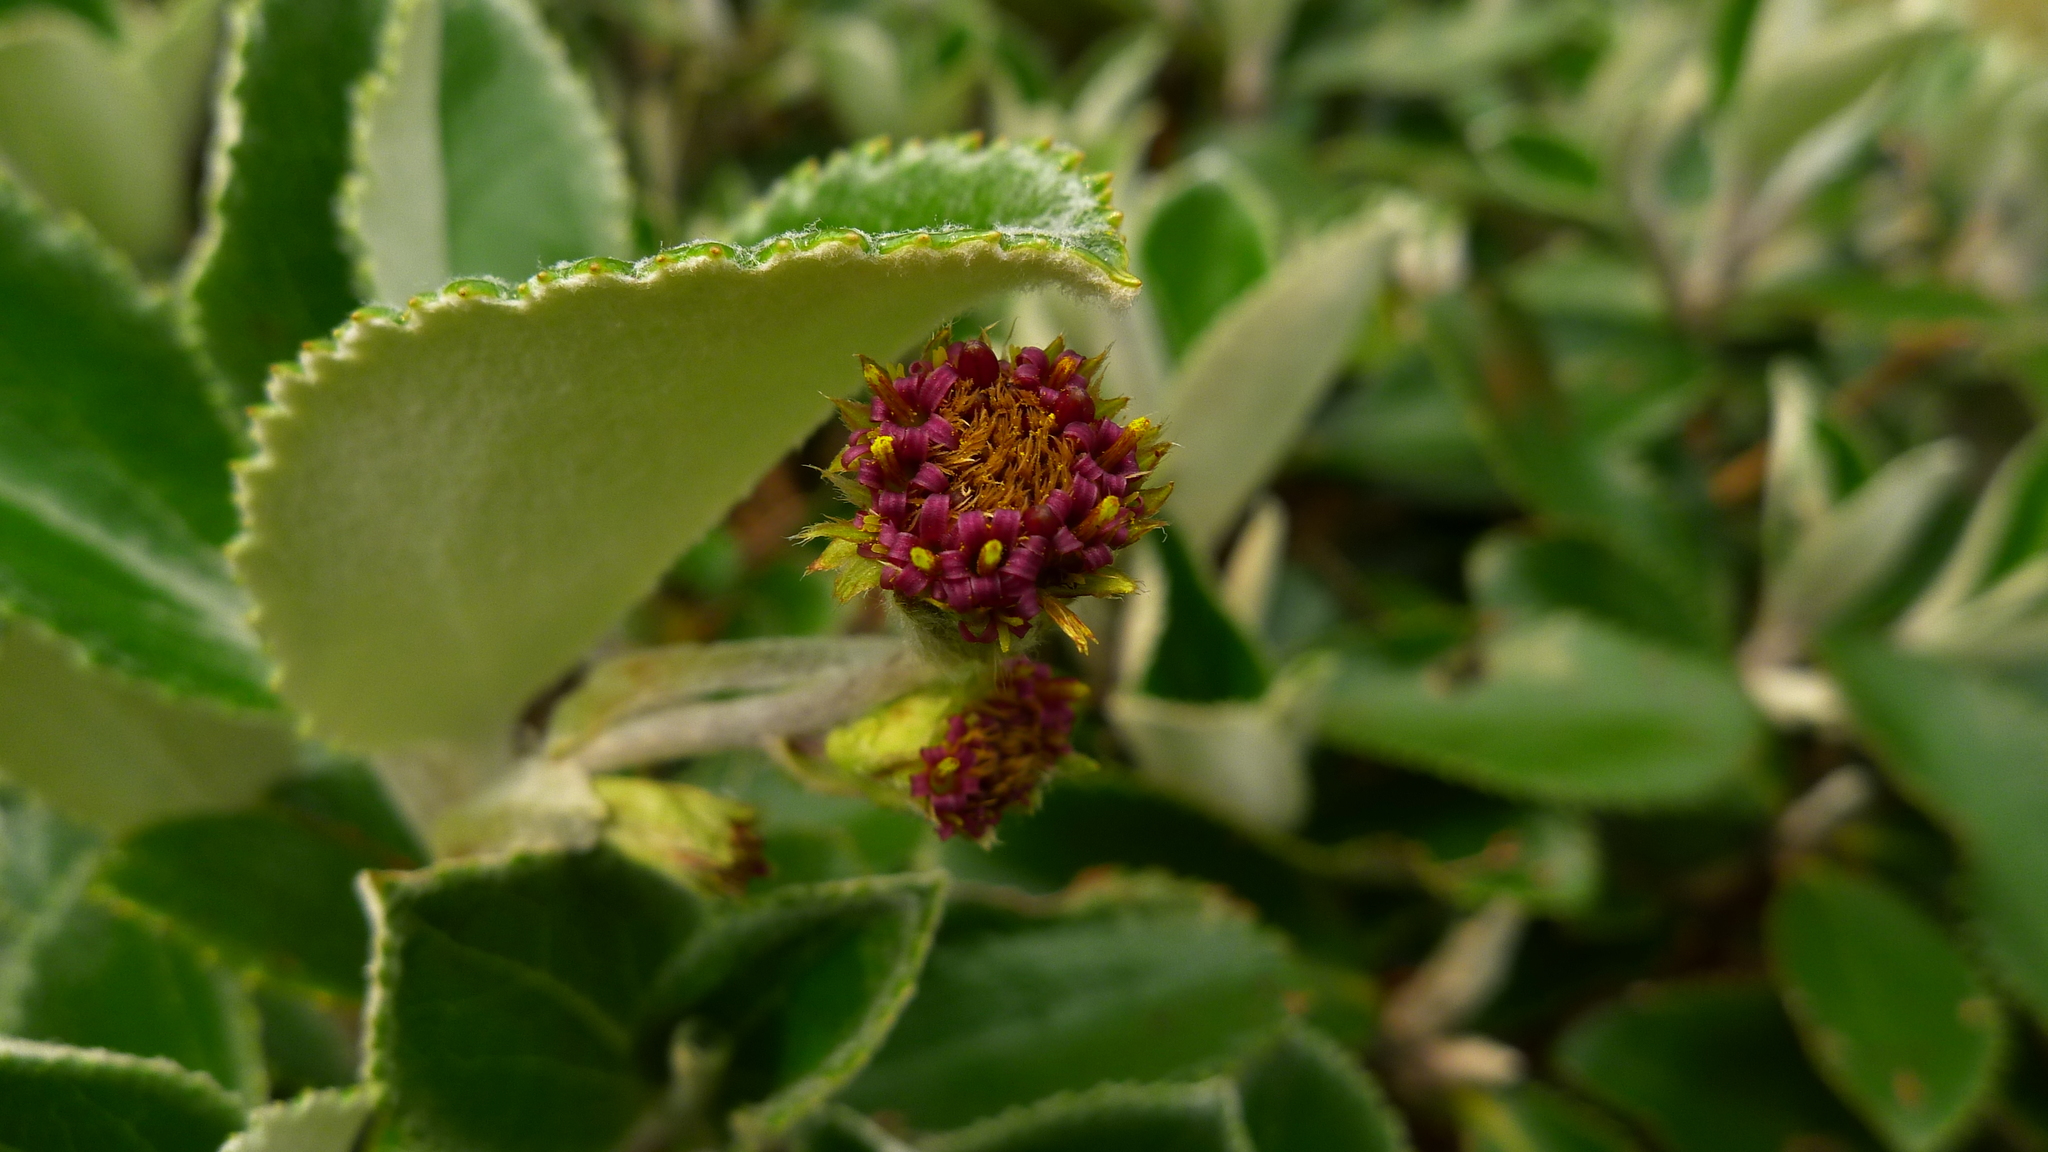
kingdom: Plantae
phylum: Tracheophyta
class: Magnoliopsida
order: Asterales
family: Asteraceae
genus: Macrolearia
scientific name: Macrolearia colensoi
